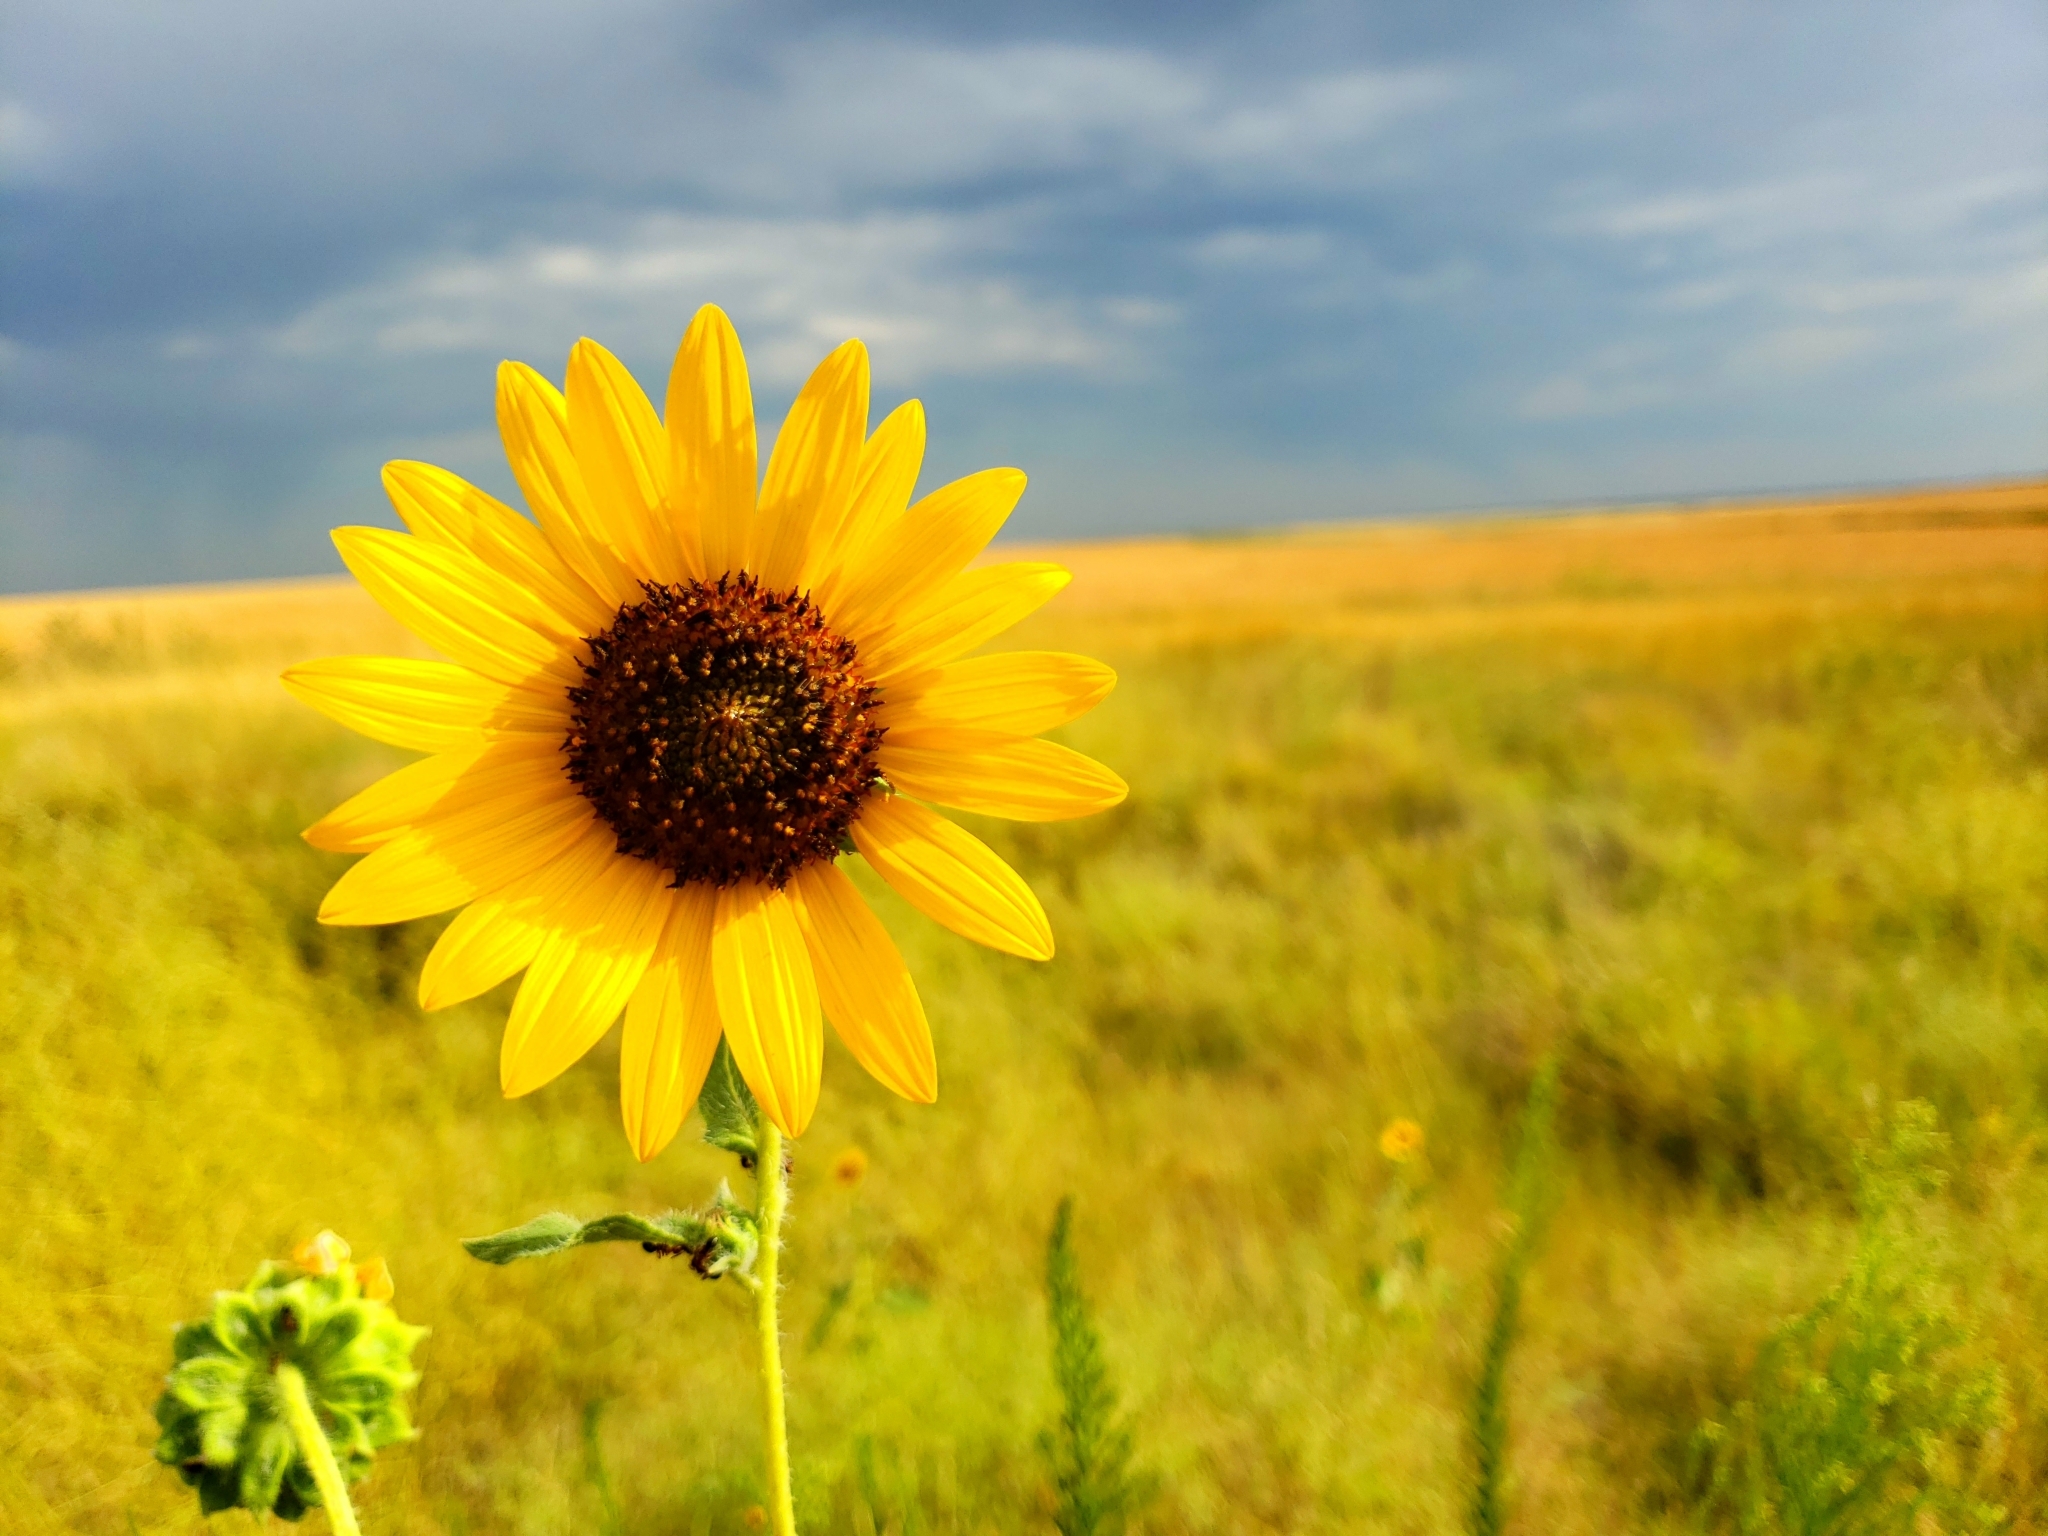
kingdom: Plantae
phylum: Tracheophyta
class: Magnoliopsida
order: Asterales
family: Asteraceae
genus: Helianthus
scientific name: Helianthus annuus
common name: Sunflower
